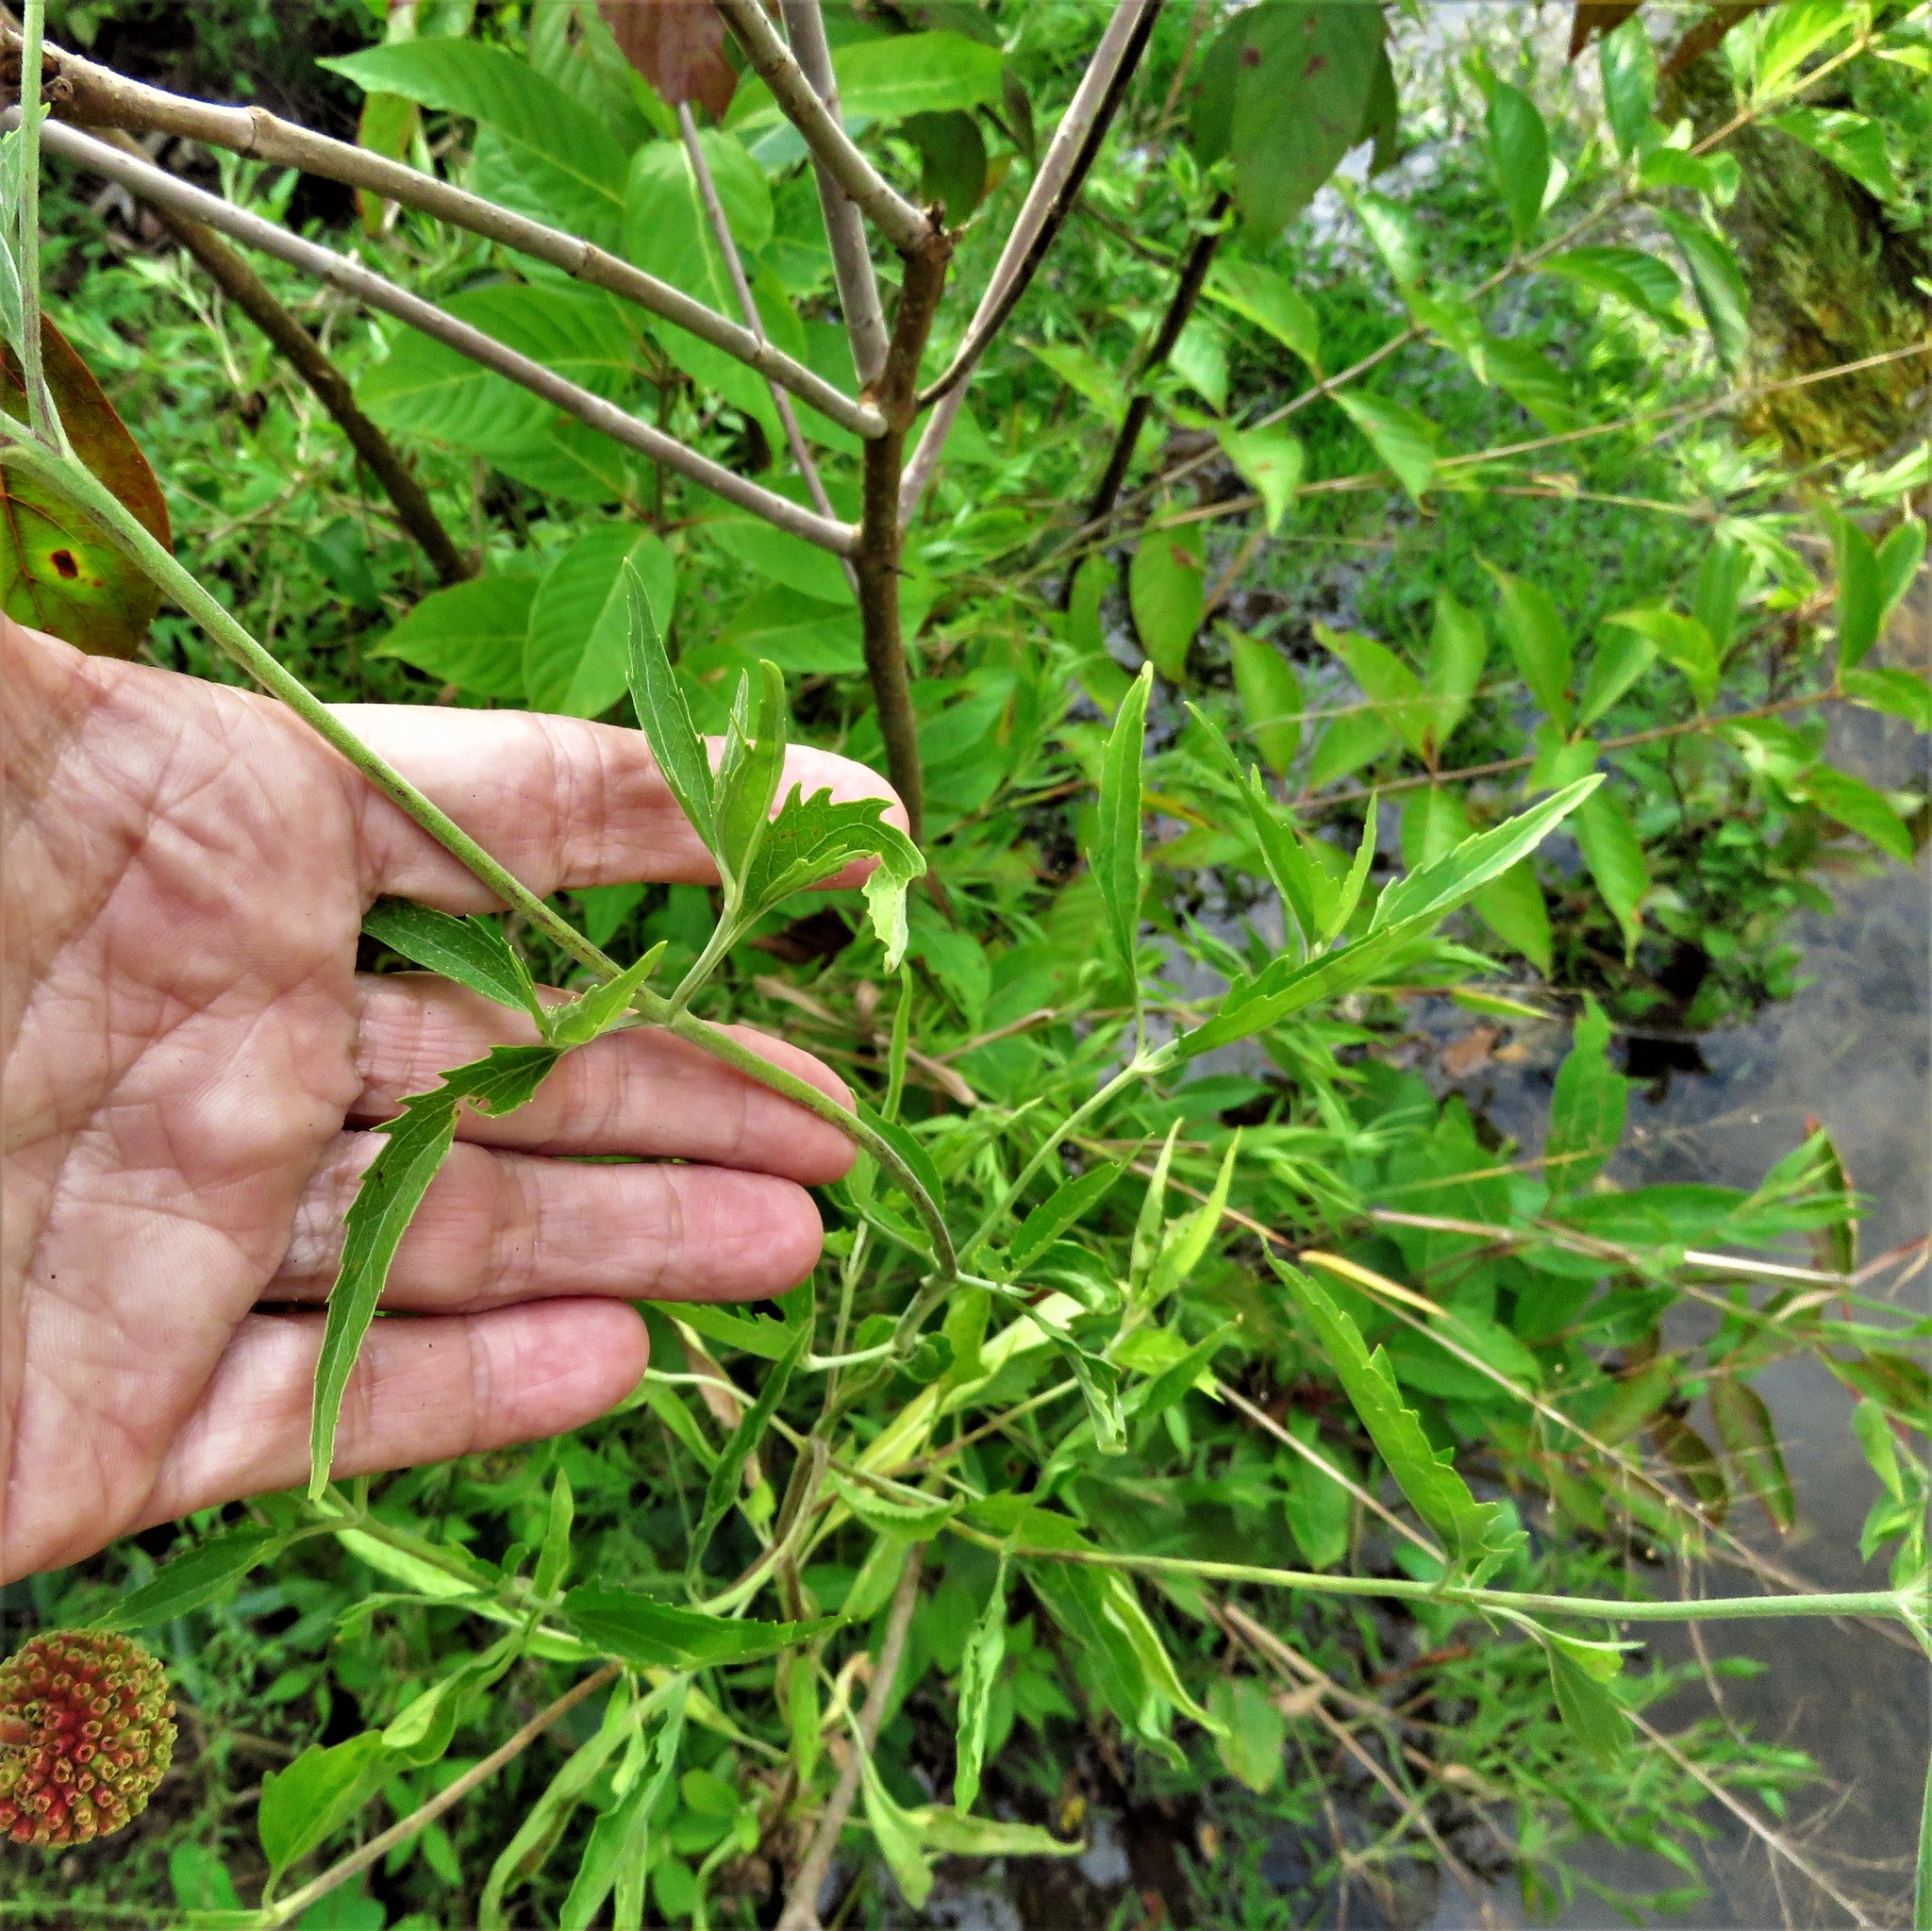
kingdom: Plantae
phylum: Tracheophyta
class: Magnoliopsida
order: Asterales
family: Asteraceae
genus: Eupatorium
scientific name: Eupatorium serotinum
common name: Late boneset
